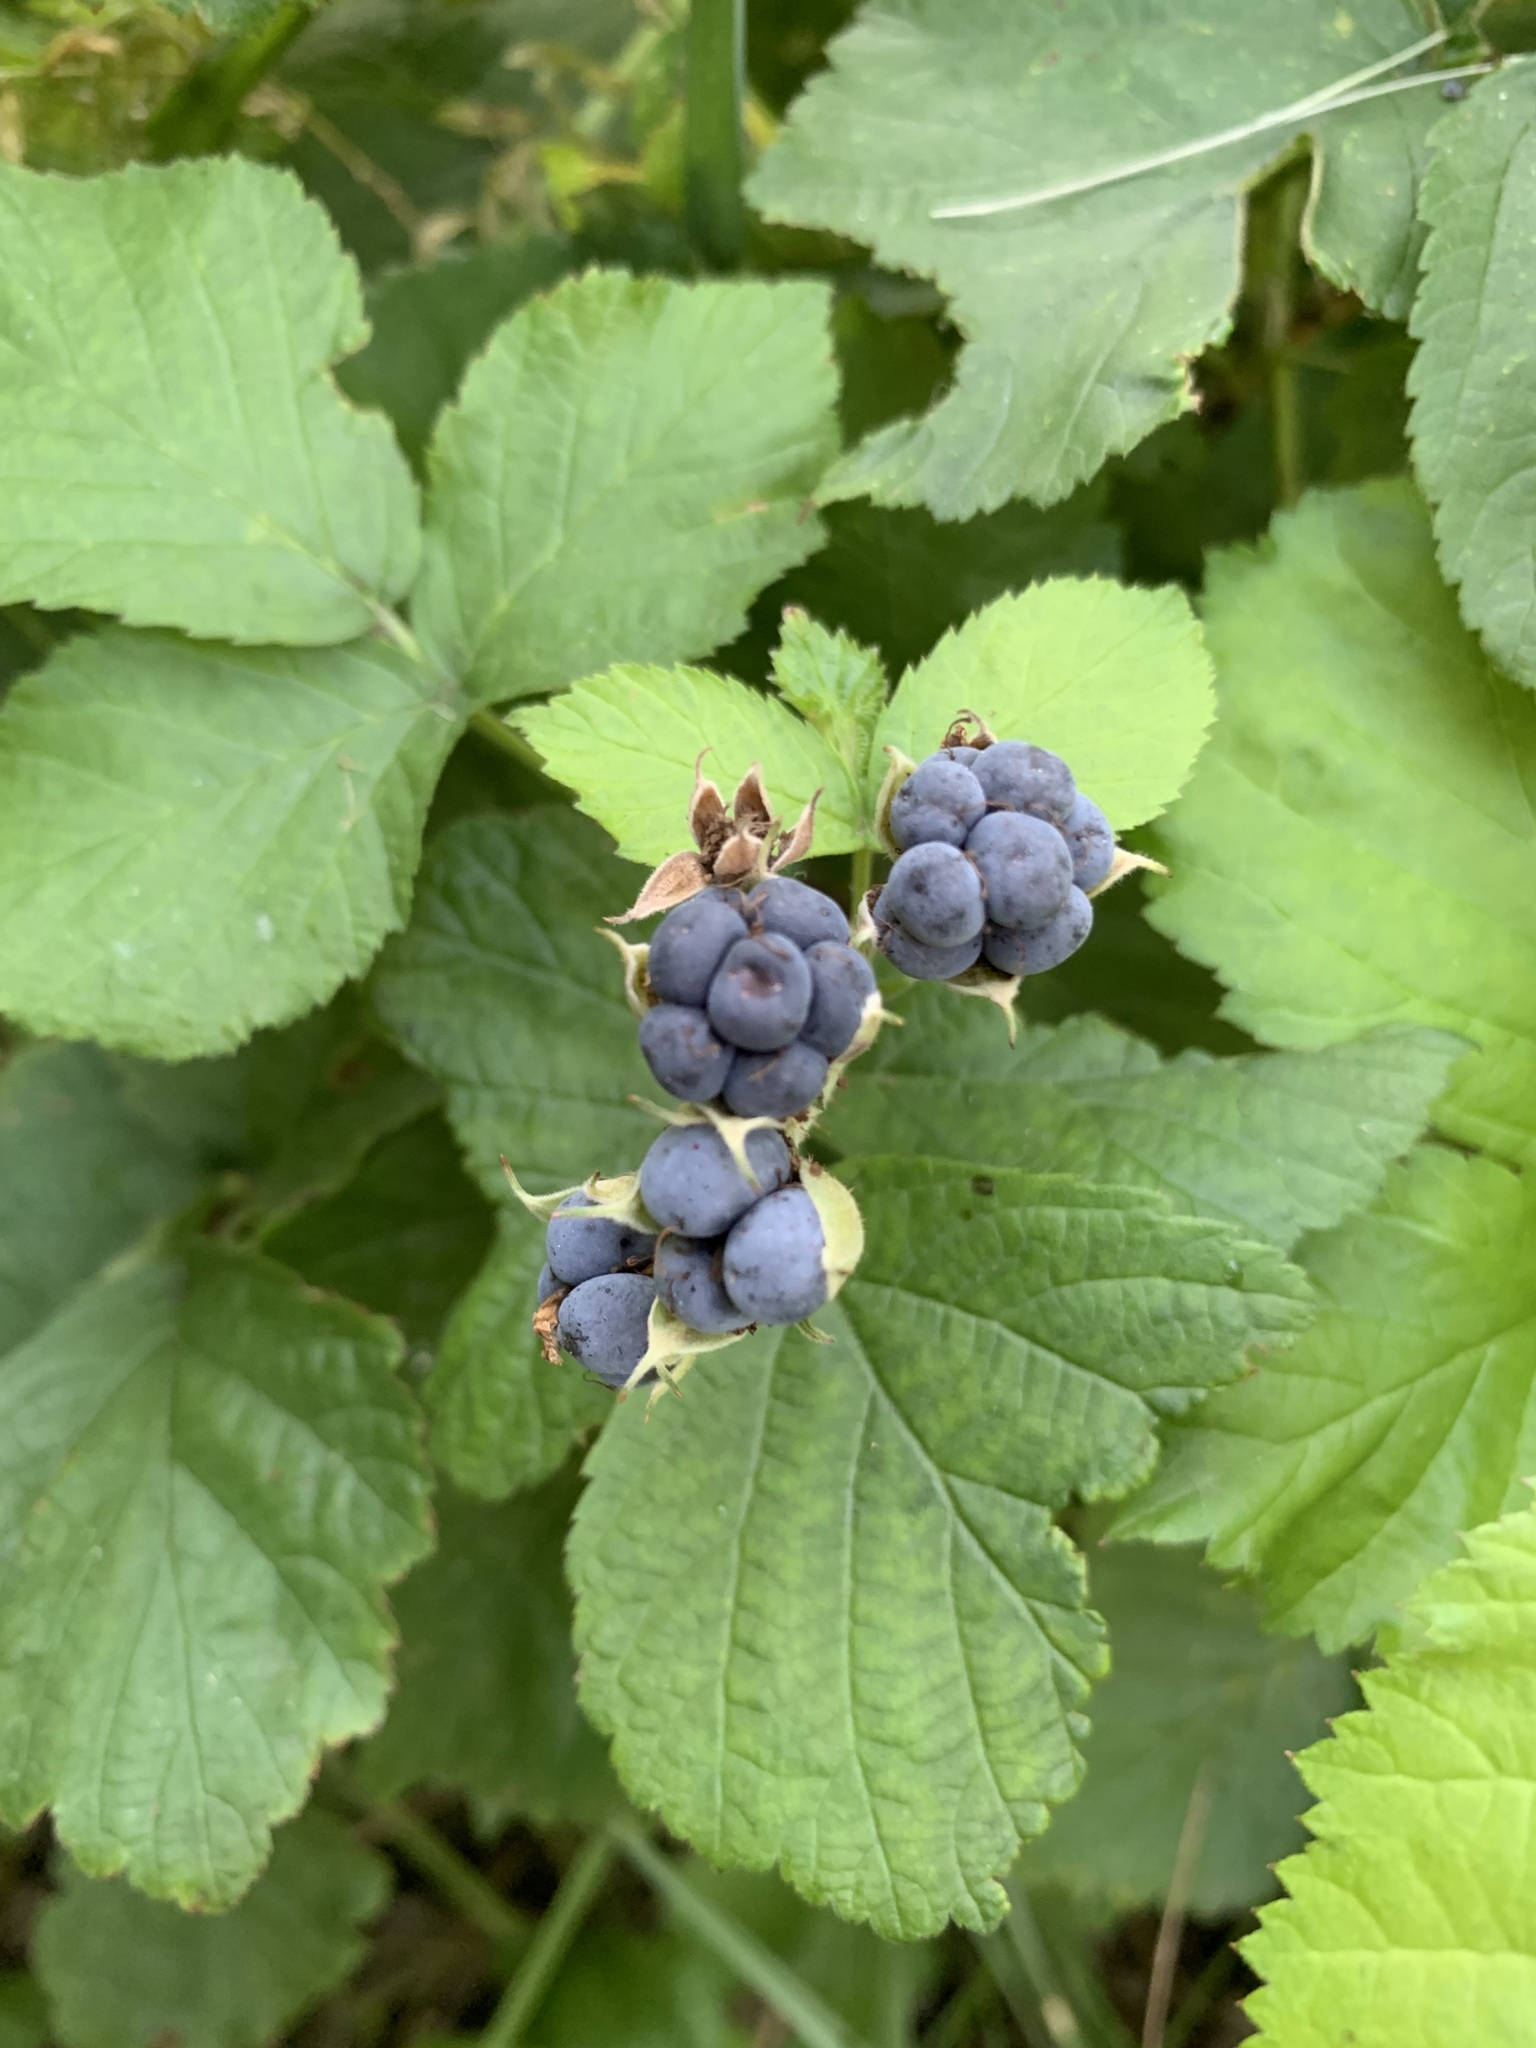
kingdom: Plantae
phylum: Tracheophyta
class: Magnoliopsida
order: Rosales
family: Rosaceae
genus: Rubus
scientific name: Rubus caesius
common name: Dewberry
